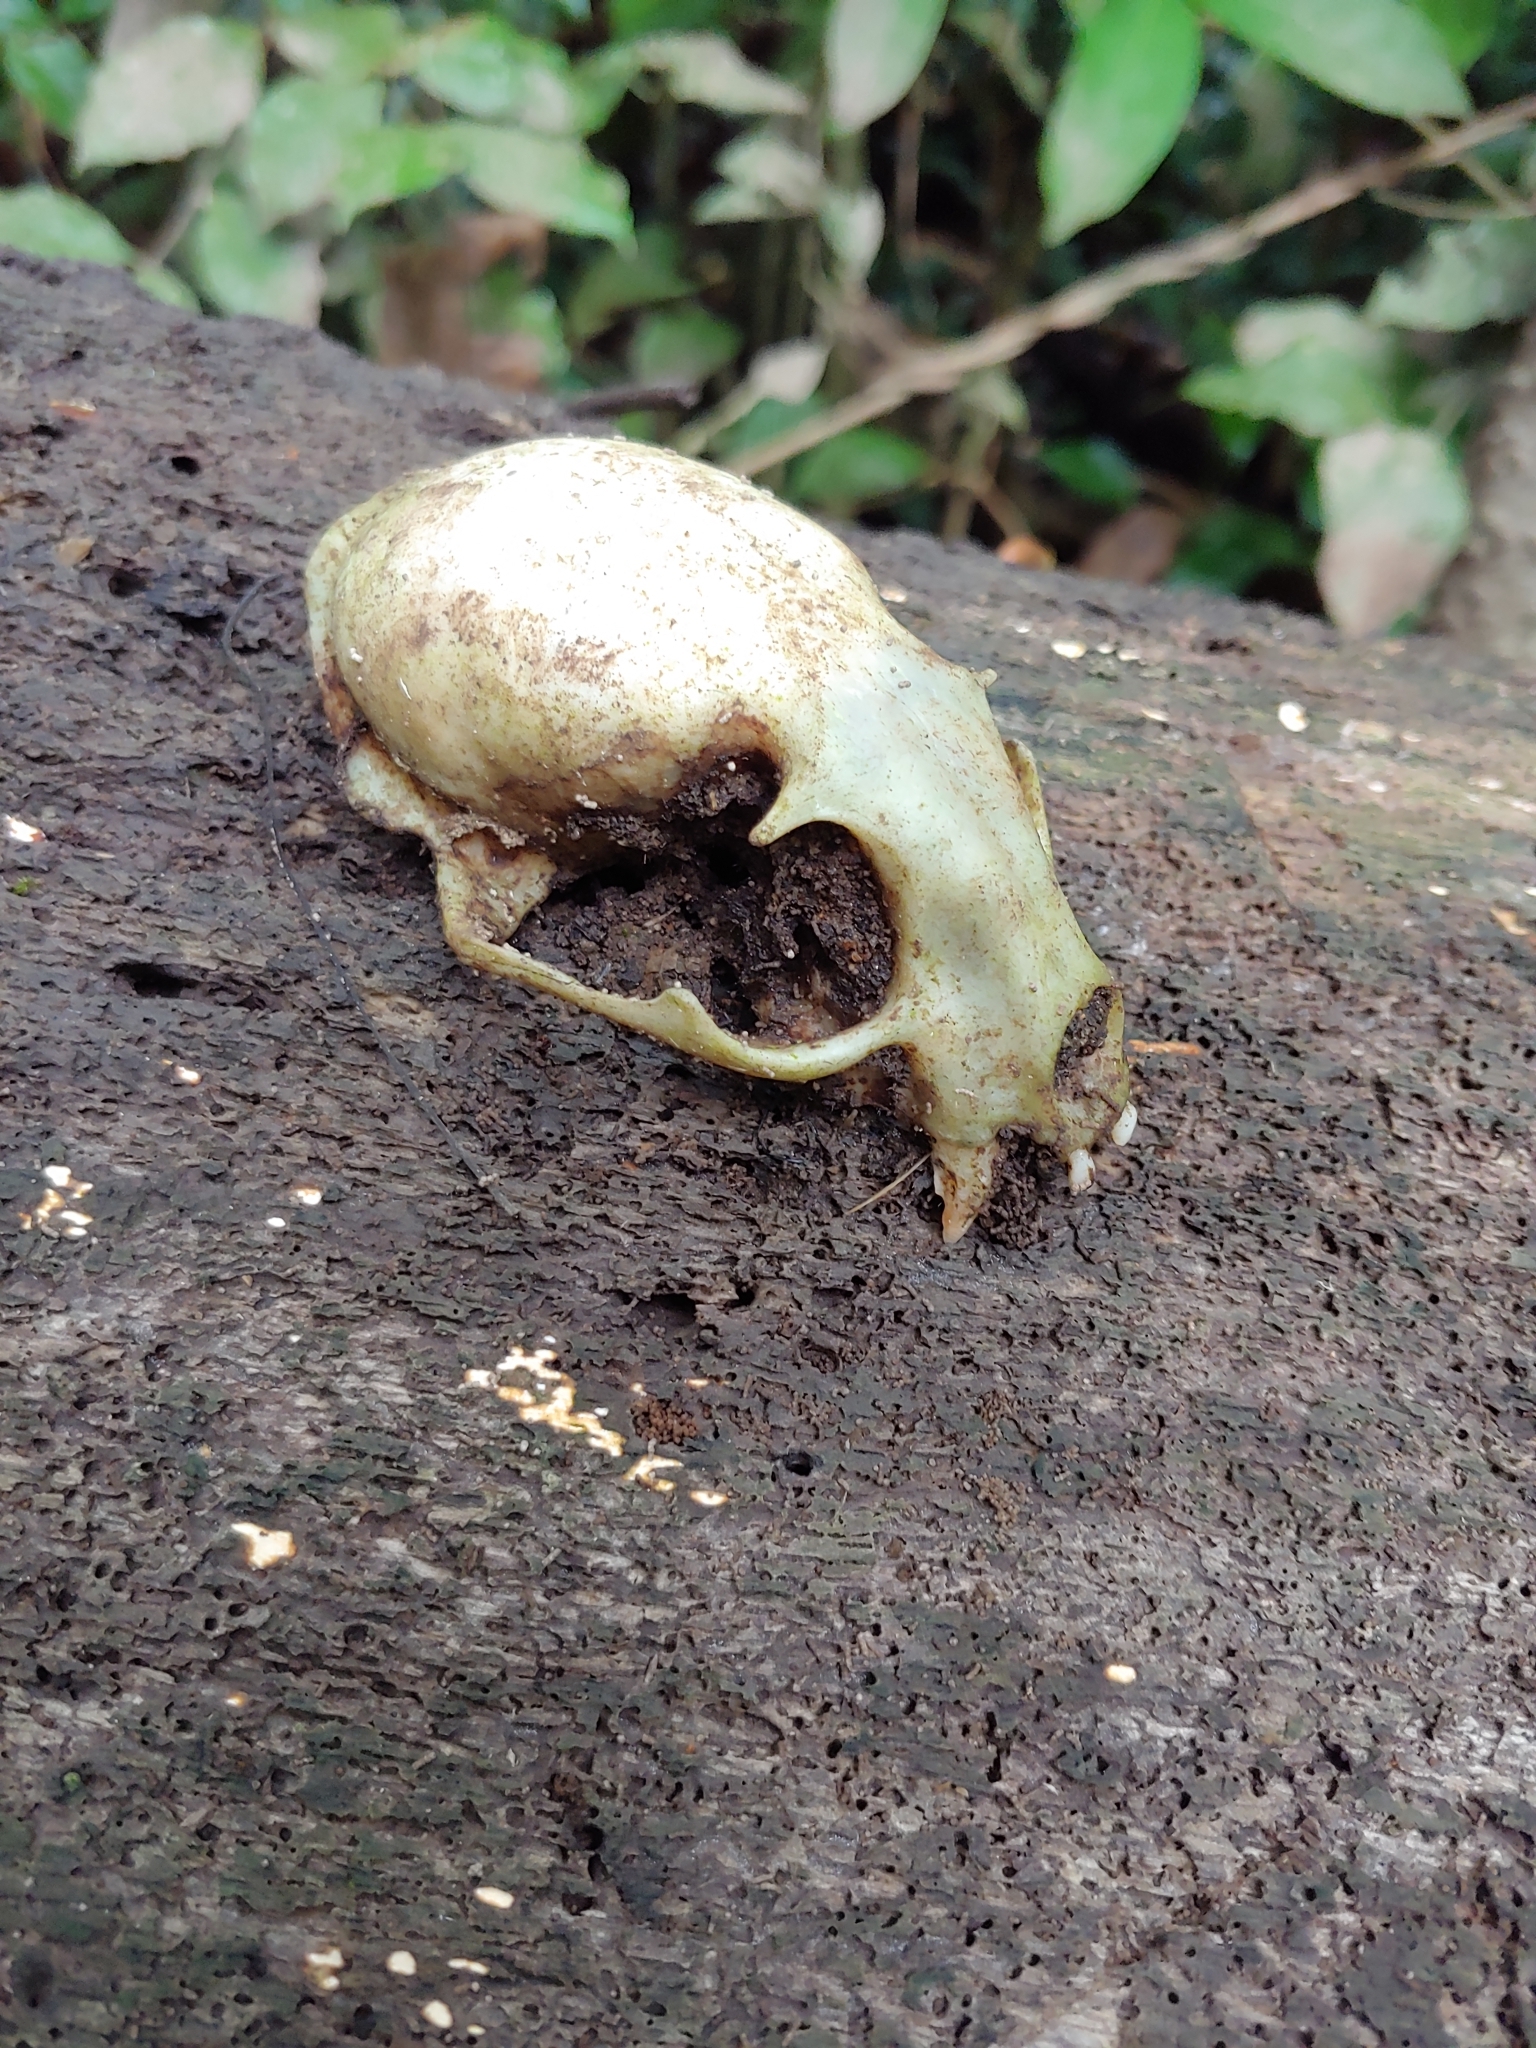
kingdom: Animalia
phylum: Chordata
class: Mammalia
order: Carnivora
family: Procyonidae
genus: Potos
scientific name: Potos flavus
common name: Kinkajou
